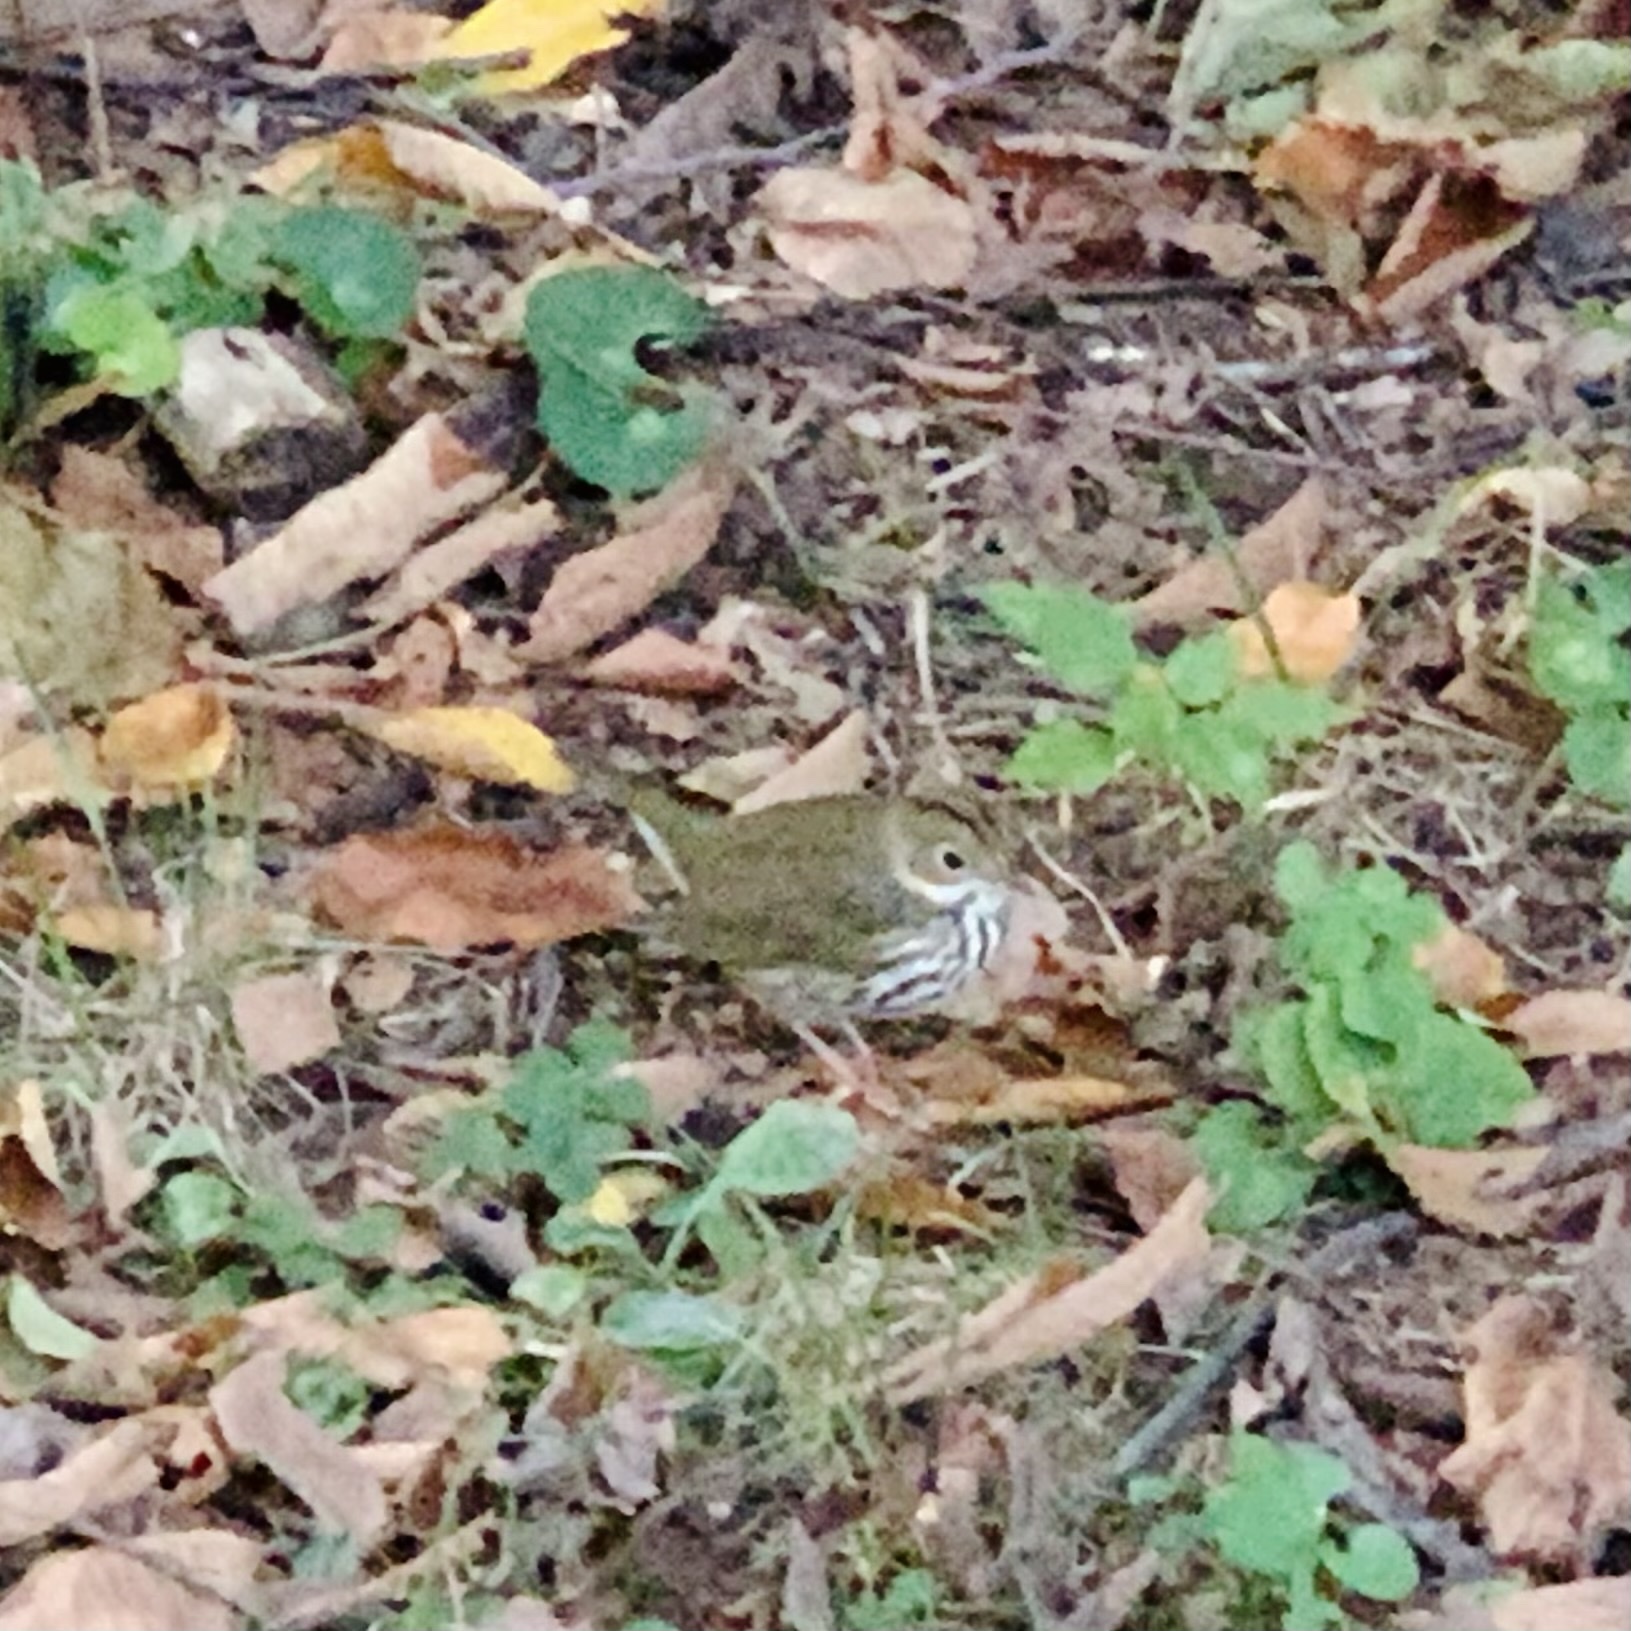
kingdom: Animalia
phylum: Chordata
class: Aves
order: Passeriformes
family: Parulidae
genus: Seiurus
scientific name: Seiurus aurocapilla
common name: Ovenbird
